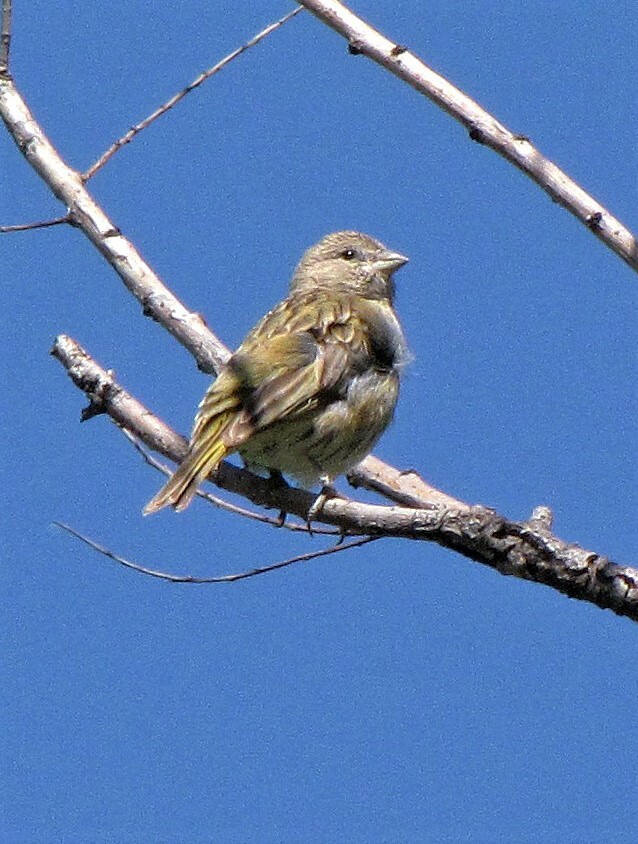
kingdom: Animalia
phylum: Chordata
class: Aves
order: Passeriformes
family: Thraupidae
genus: Sicalis
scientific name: Sicalis flaveola
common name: Saffron finch
